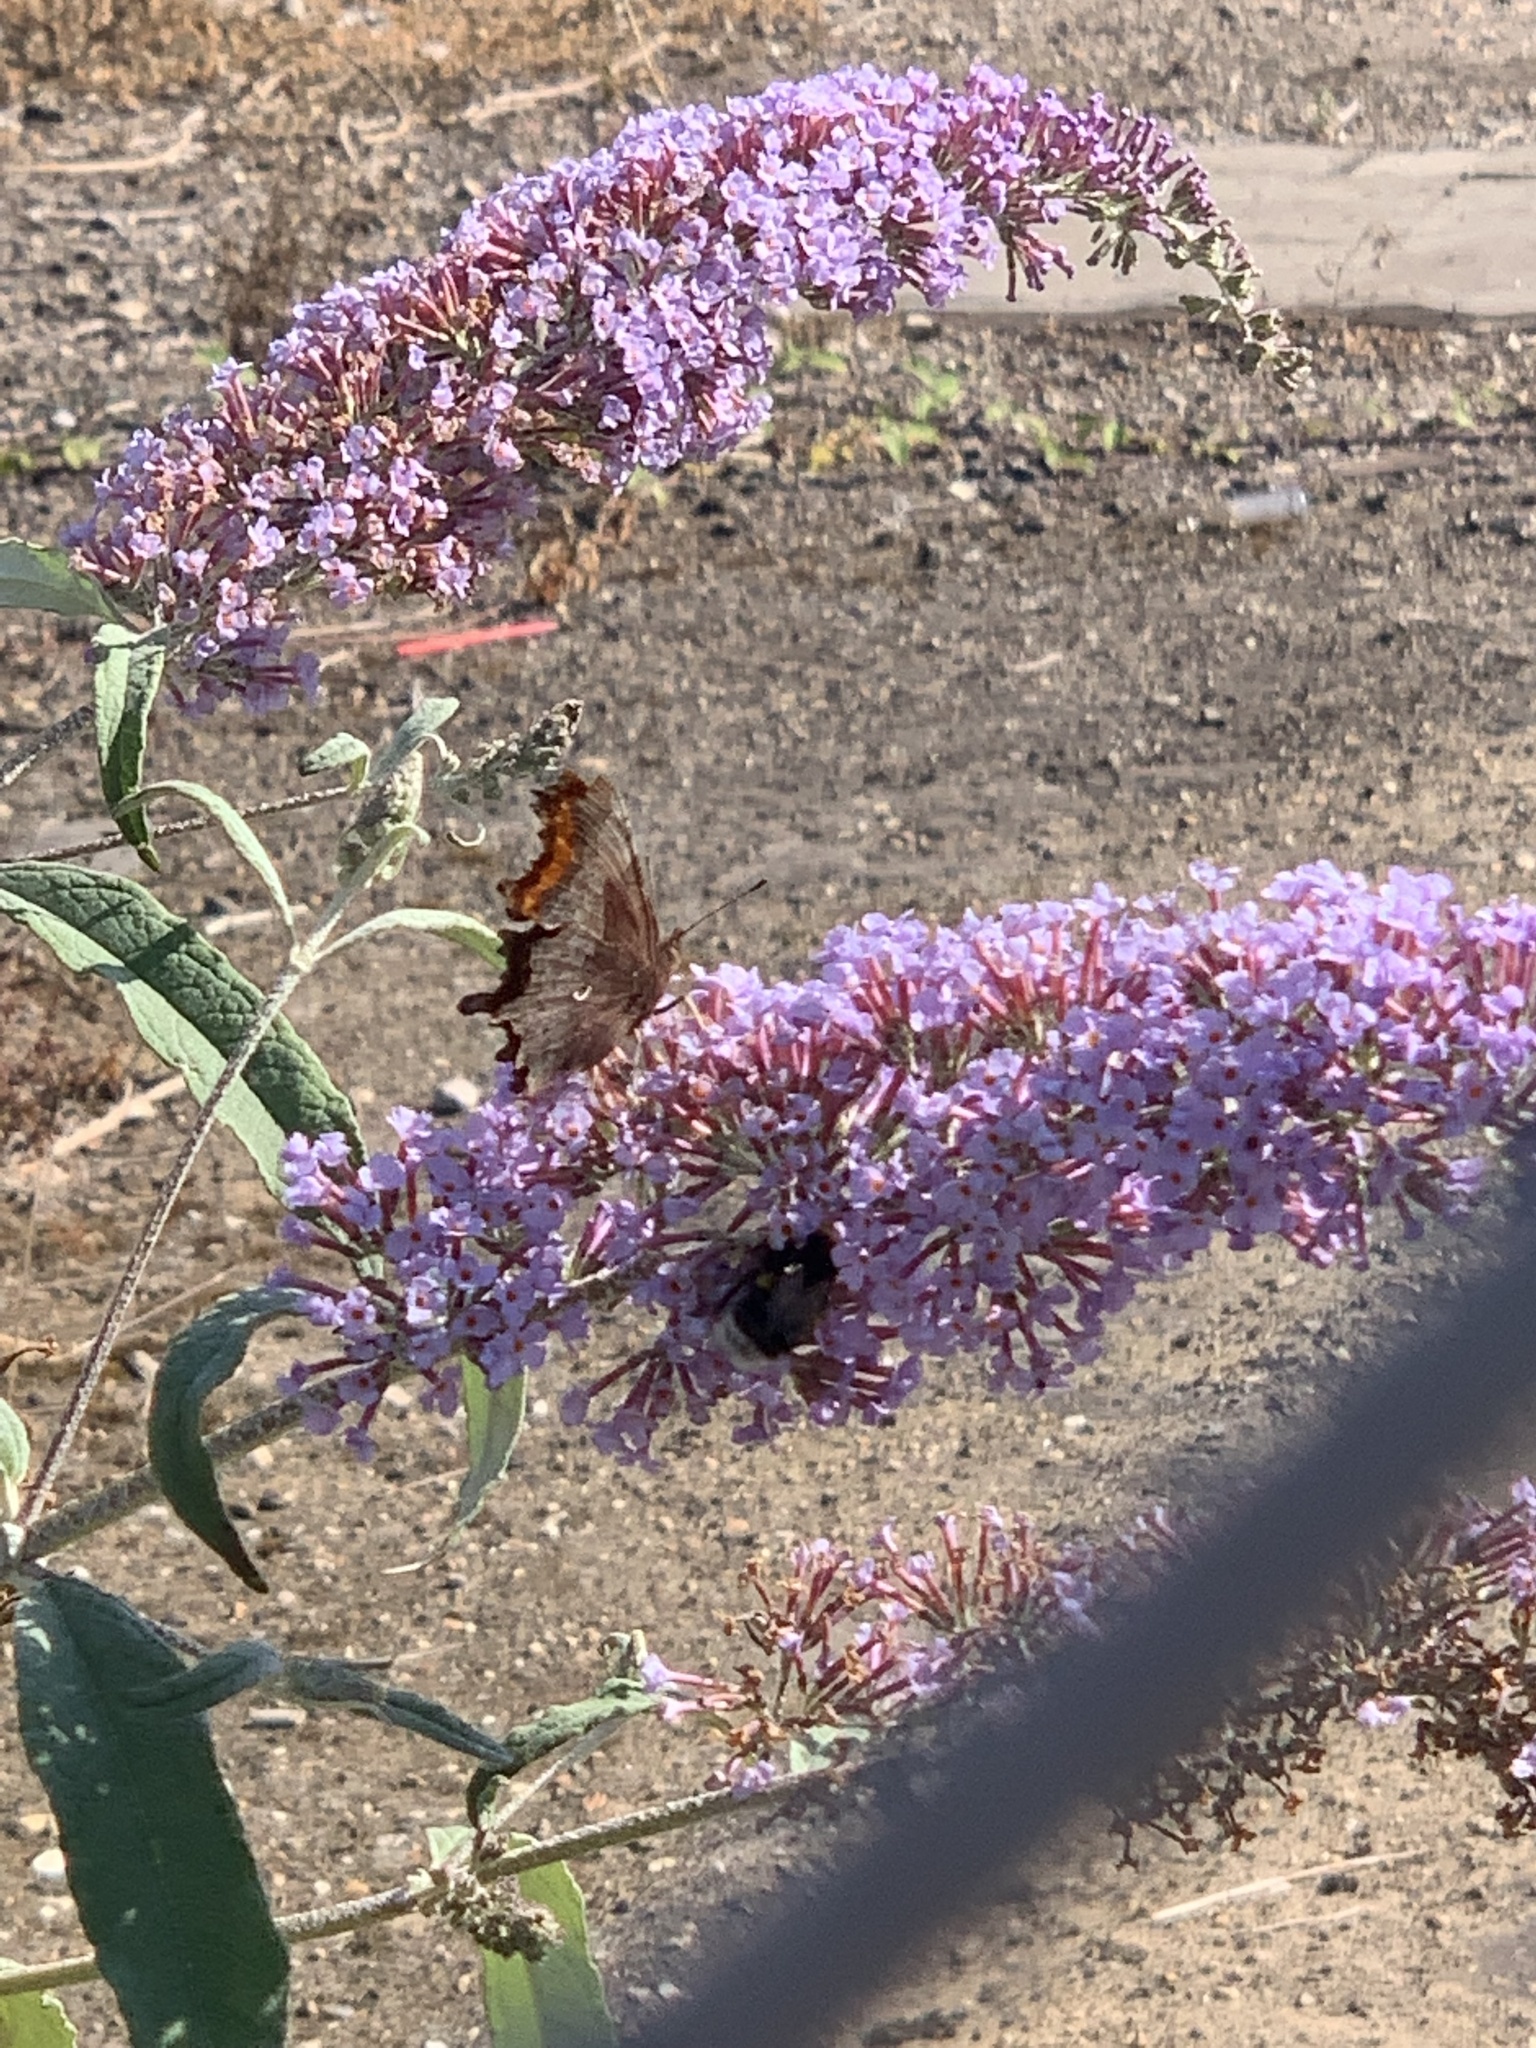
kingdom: Animalia
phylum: Arthropoda
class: Insecta
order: Lepidoptera
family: Nymphalidae
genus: Polygonia
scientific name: Polygonia c-album
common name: Comma
